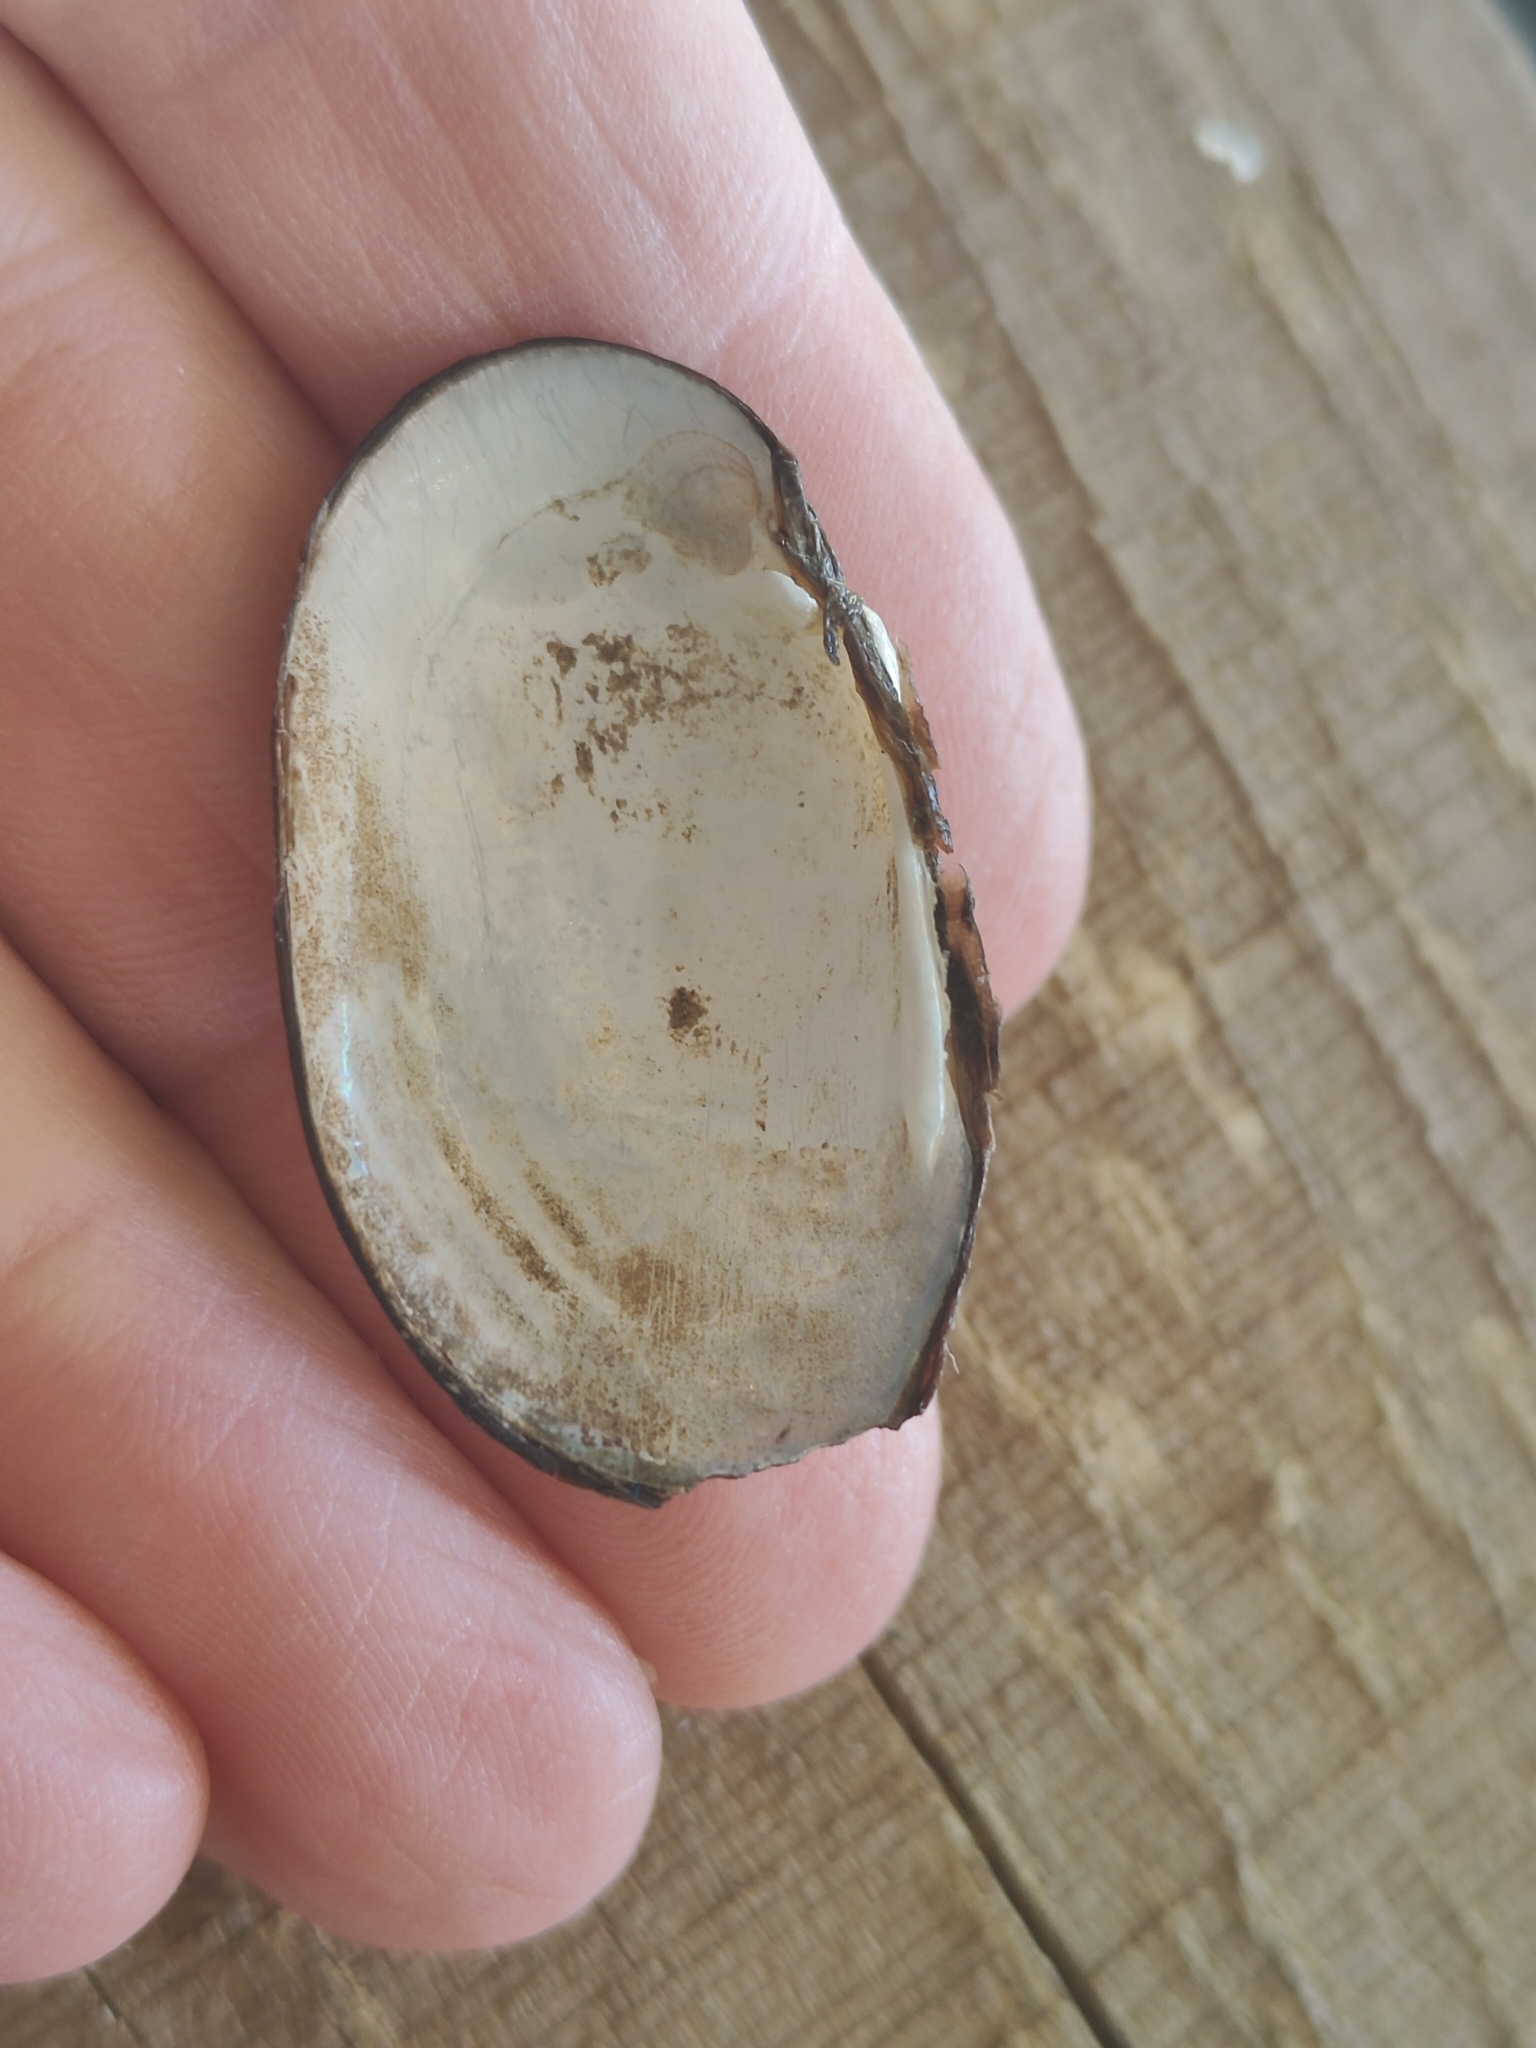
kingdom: Animalia
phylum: Mollusca
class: Bivalvia
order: Unionida
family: Unionidae
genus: Toxolasma
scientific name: Toxolasma parvum
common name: Lilliput
